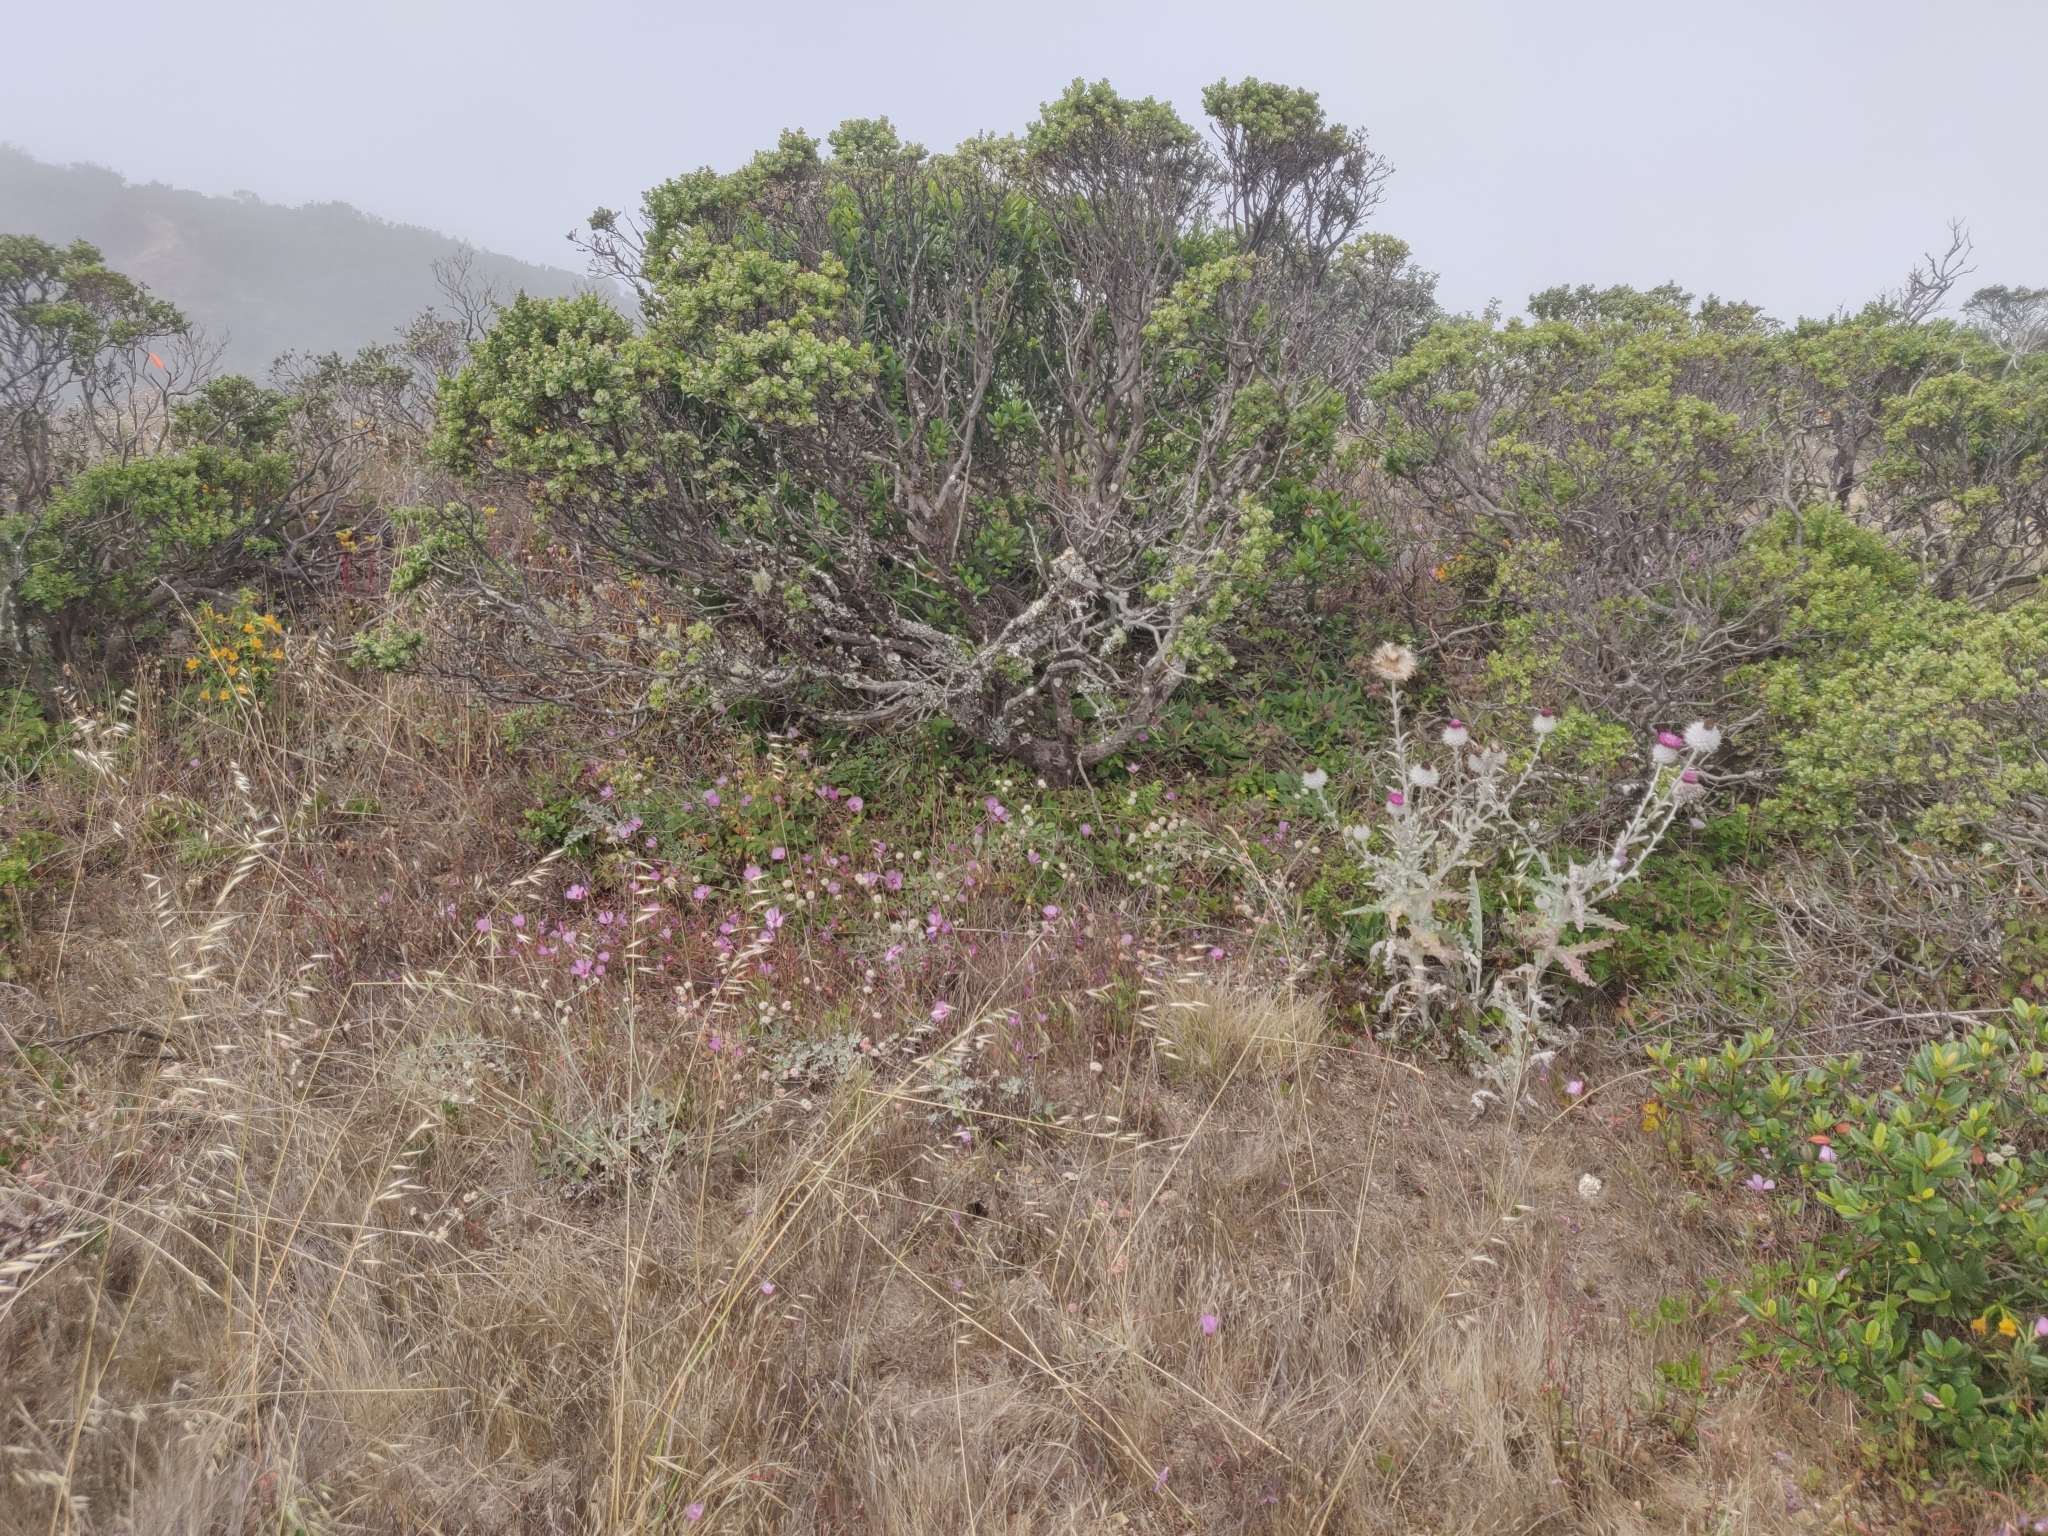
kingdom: Plantae
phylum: Tracheophyta
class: Magnoliopsida
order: Asterales
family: Asteraceae
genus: Cirsium
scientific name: Cirsium occidentale
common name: Western thistle
